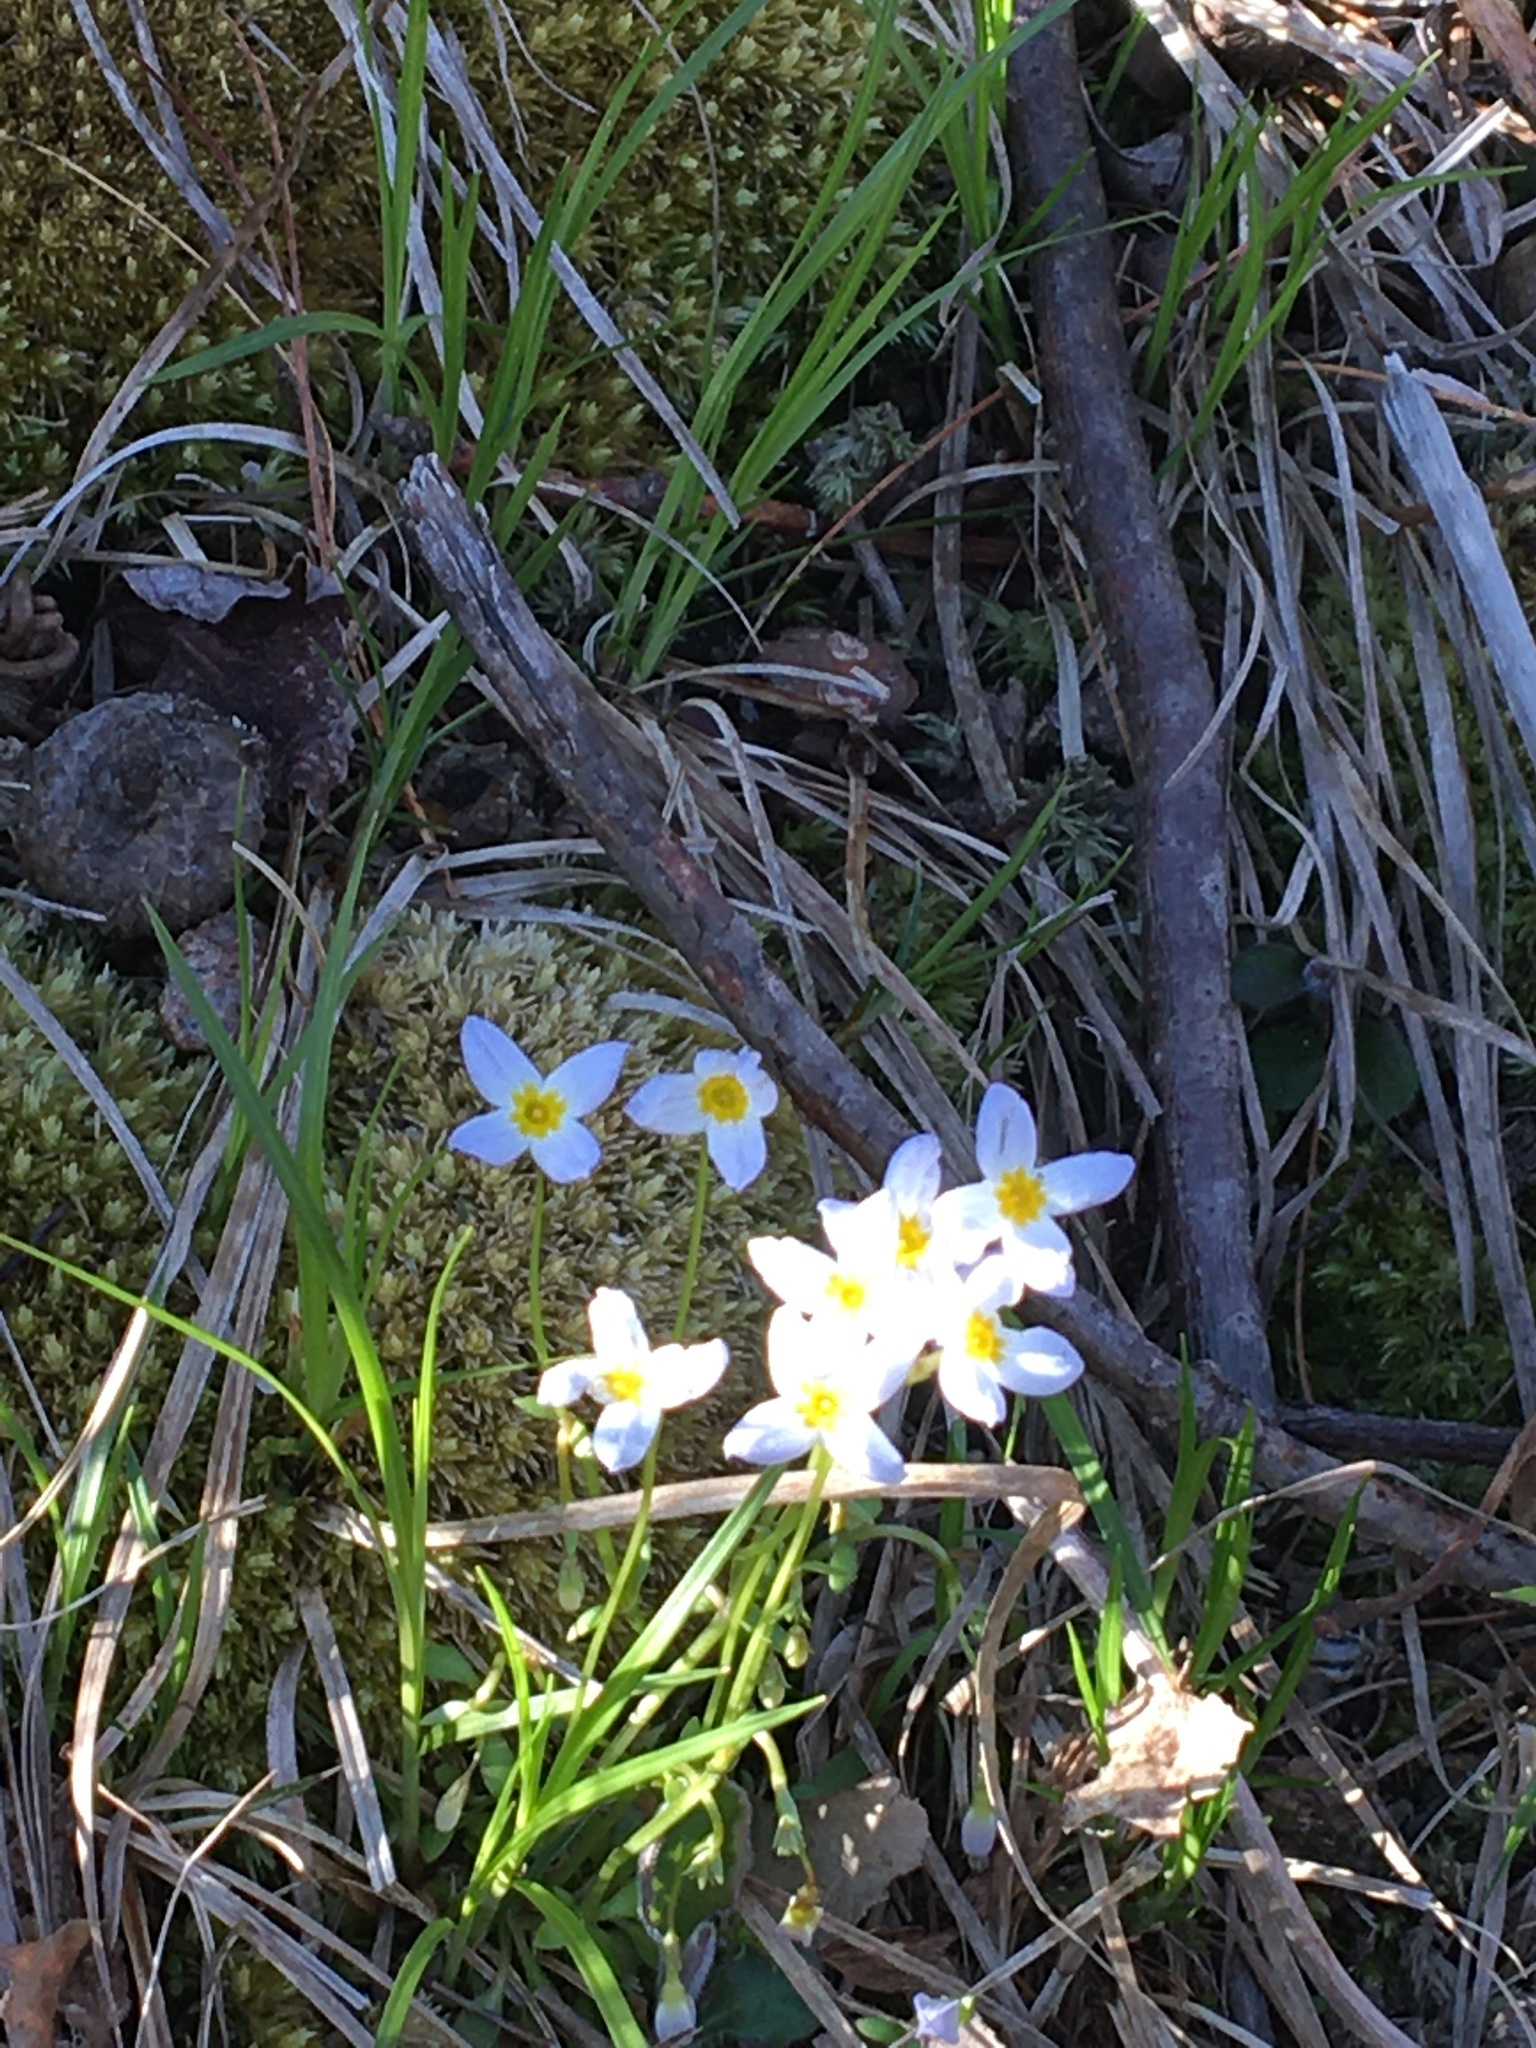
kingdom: Plantae
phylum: Tracheophyta
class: Magnoliopsida
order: Gentianales
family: Rubiaceae
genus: Houstonia
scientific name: Houstonia caerulea
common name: Bluets
